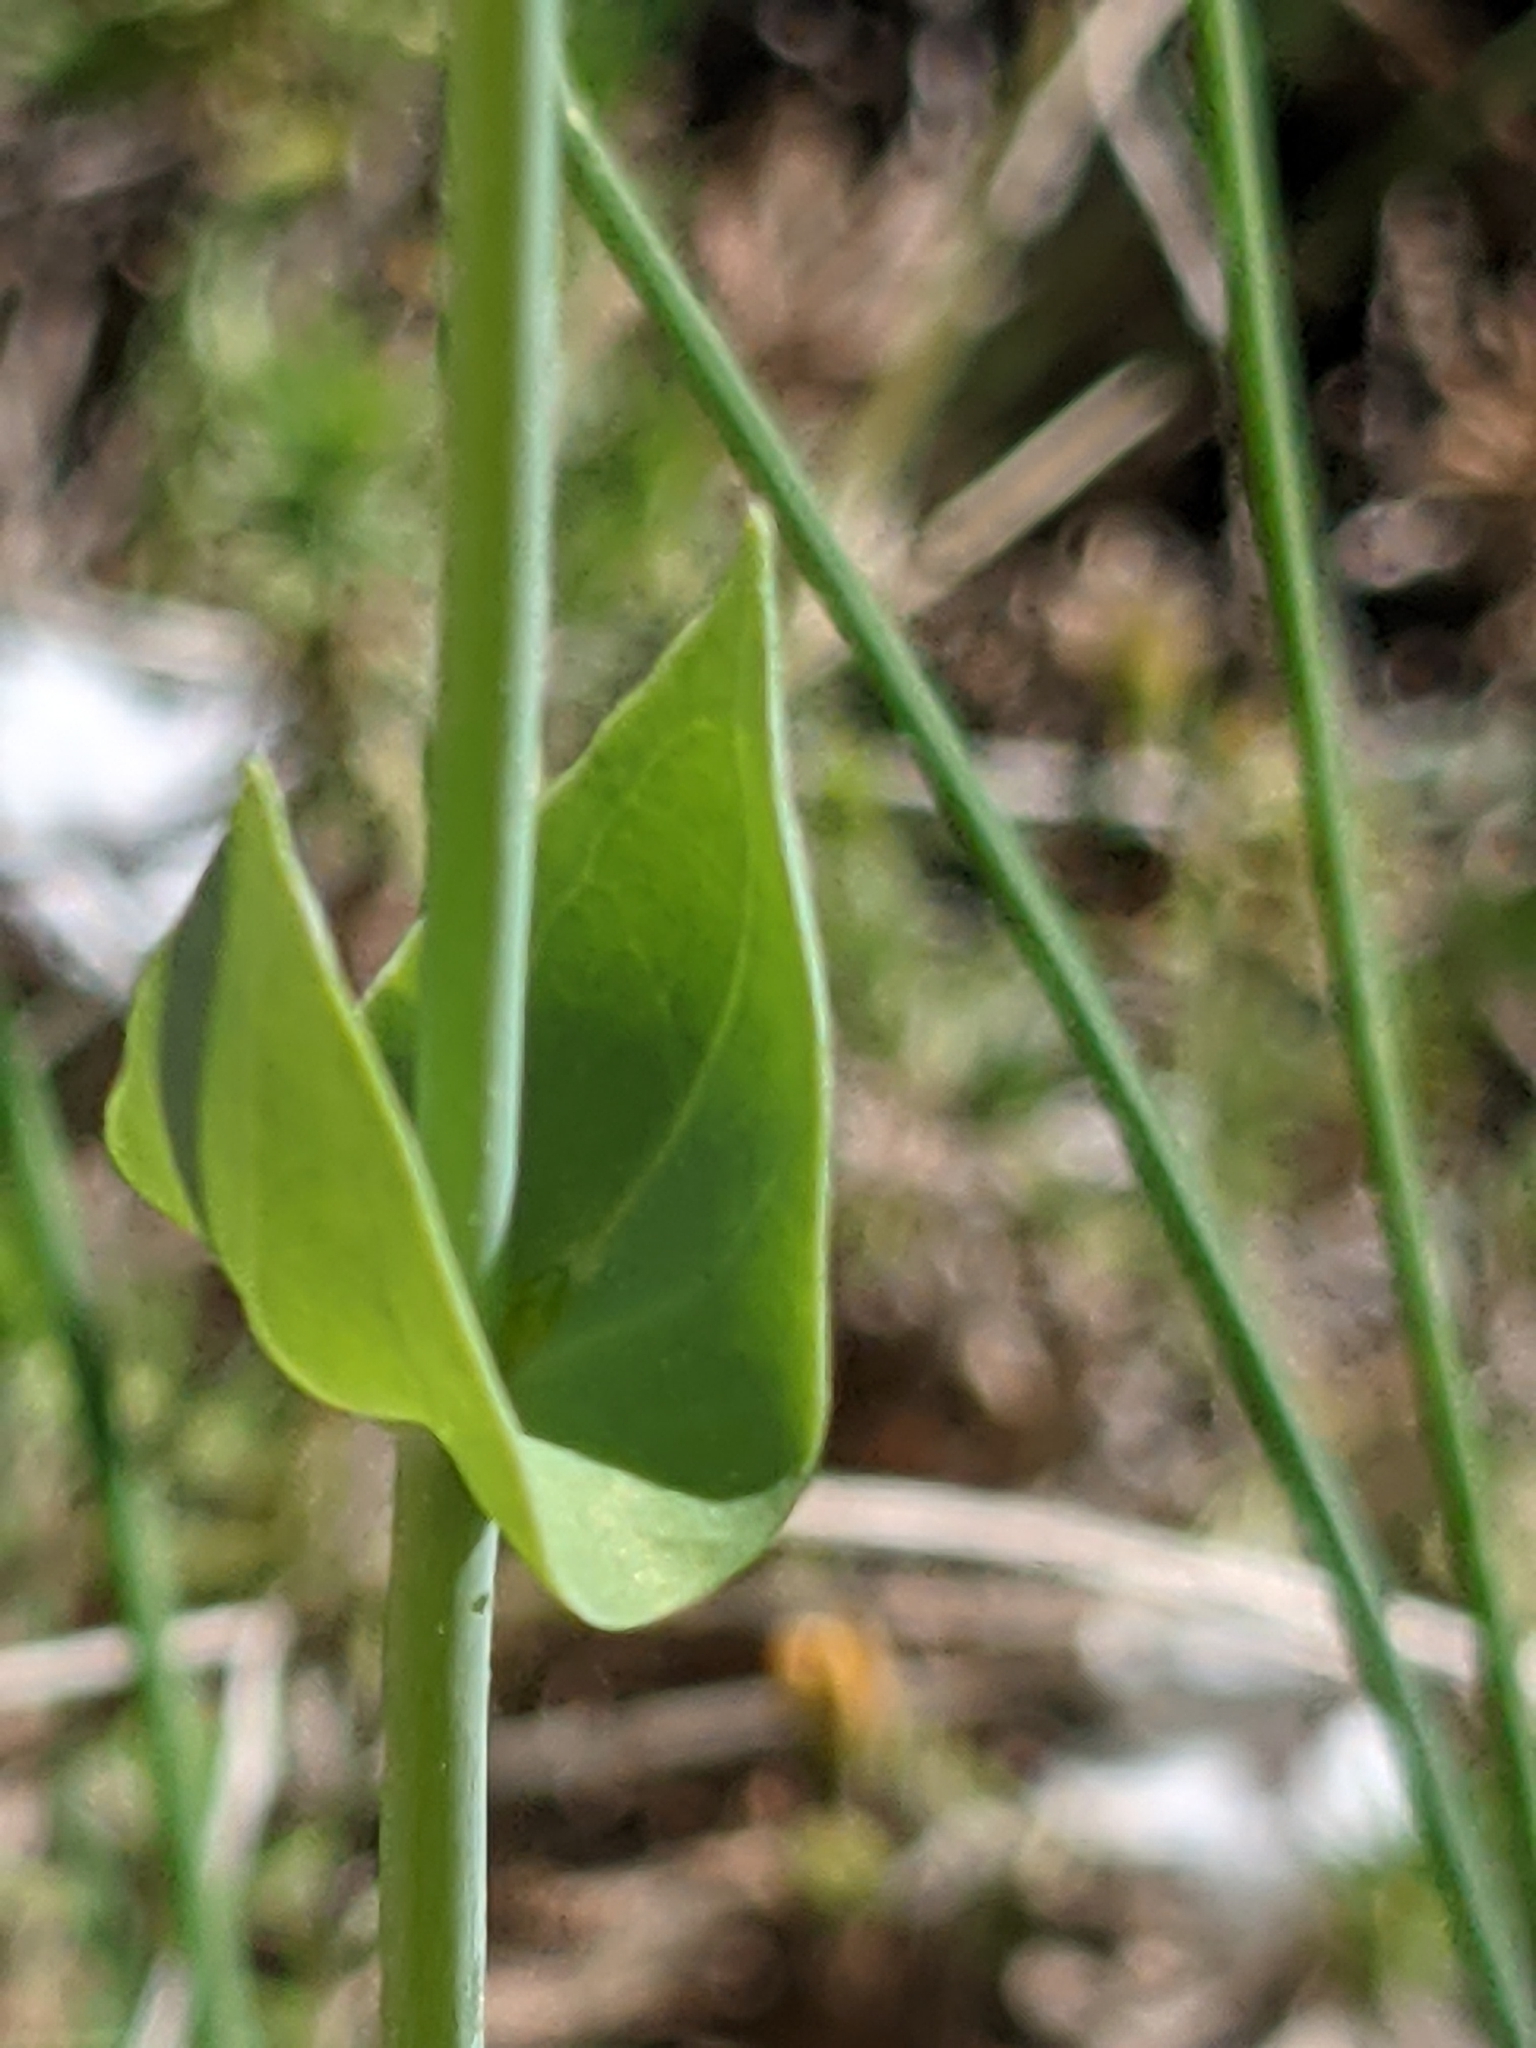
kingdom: Plantae
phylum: Tracheophyta
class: Magnoliopsida
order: Gentianales
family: Gentianaceae
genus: Blackstonia
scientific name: Blackstonia perfoliata
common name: Yellow-wort
